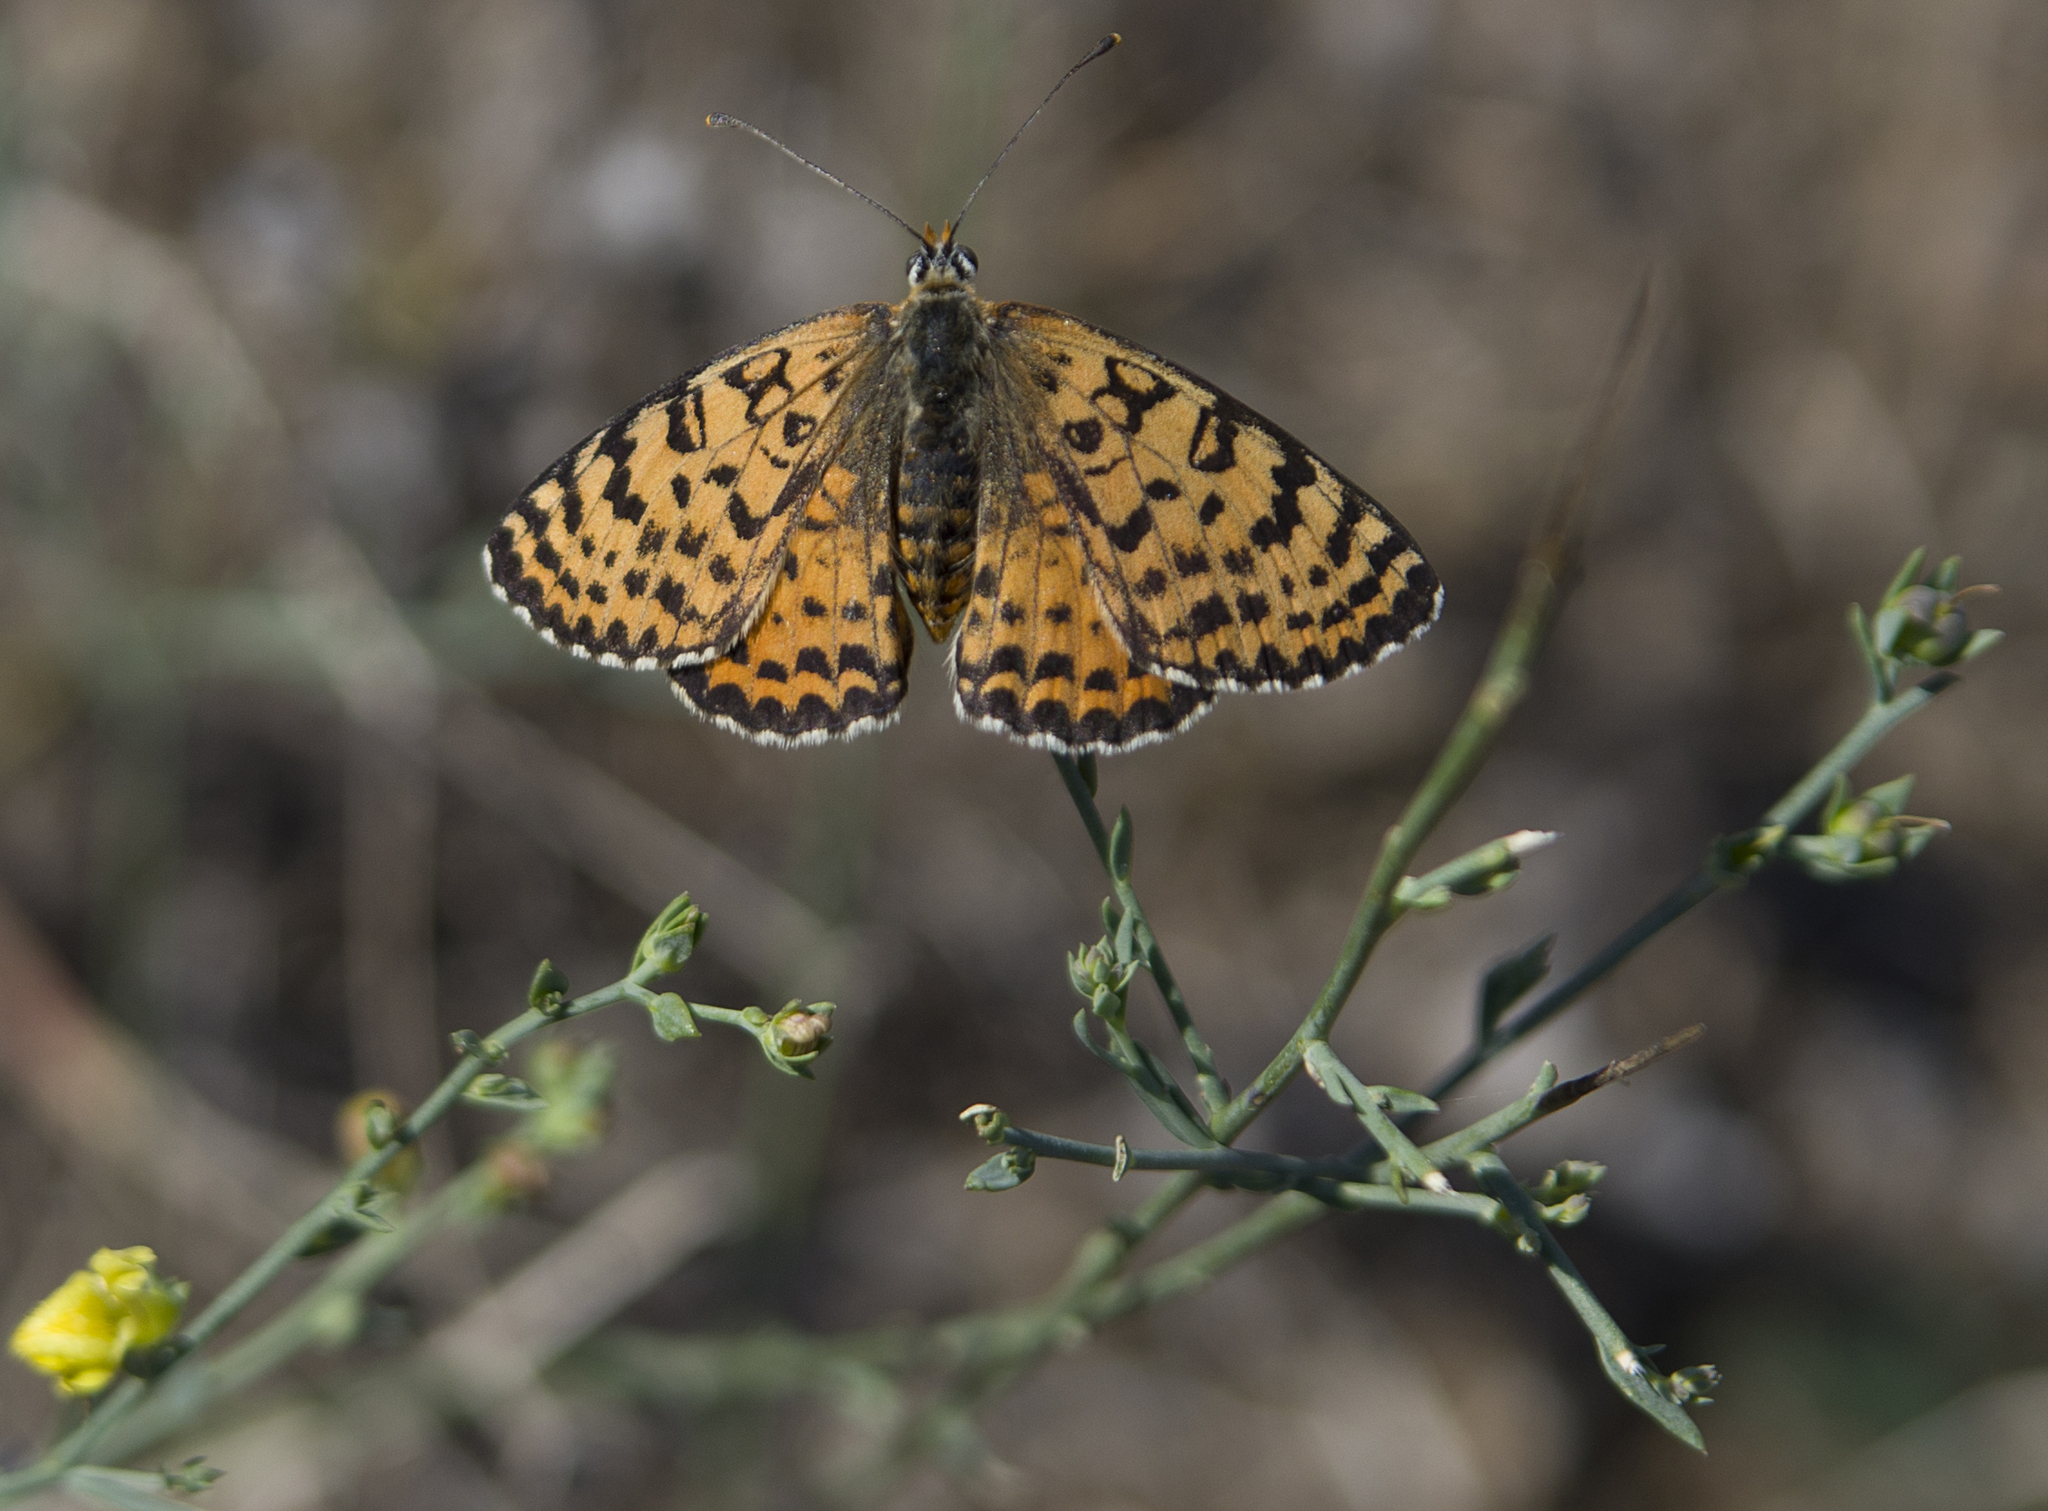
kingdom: Animalia
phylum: Arthropoda
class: Insecta
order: Lepidoptera
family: Nymphalidae
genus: Melitaea
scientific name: Melitaea didyma
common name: Spotted fritillary
